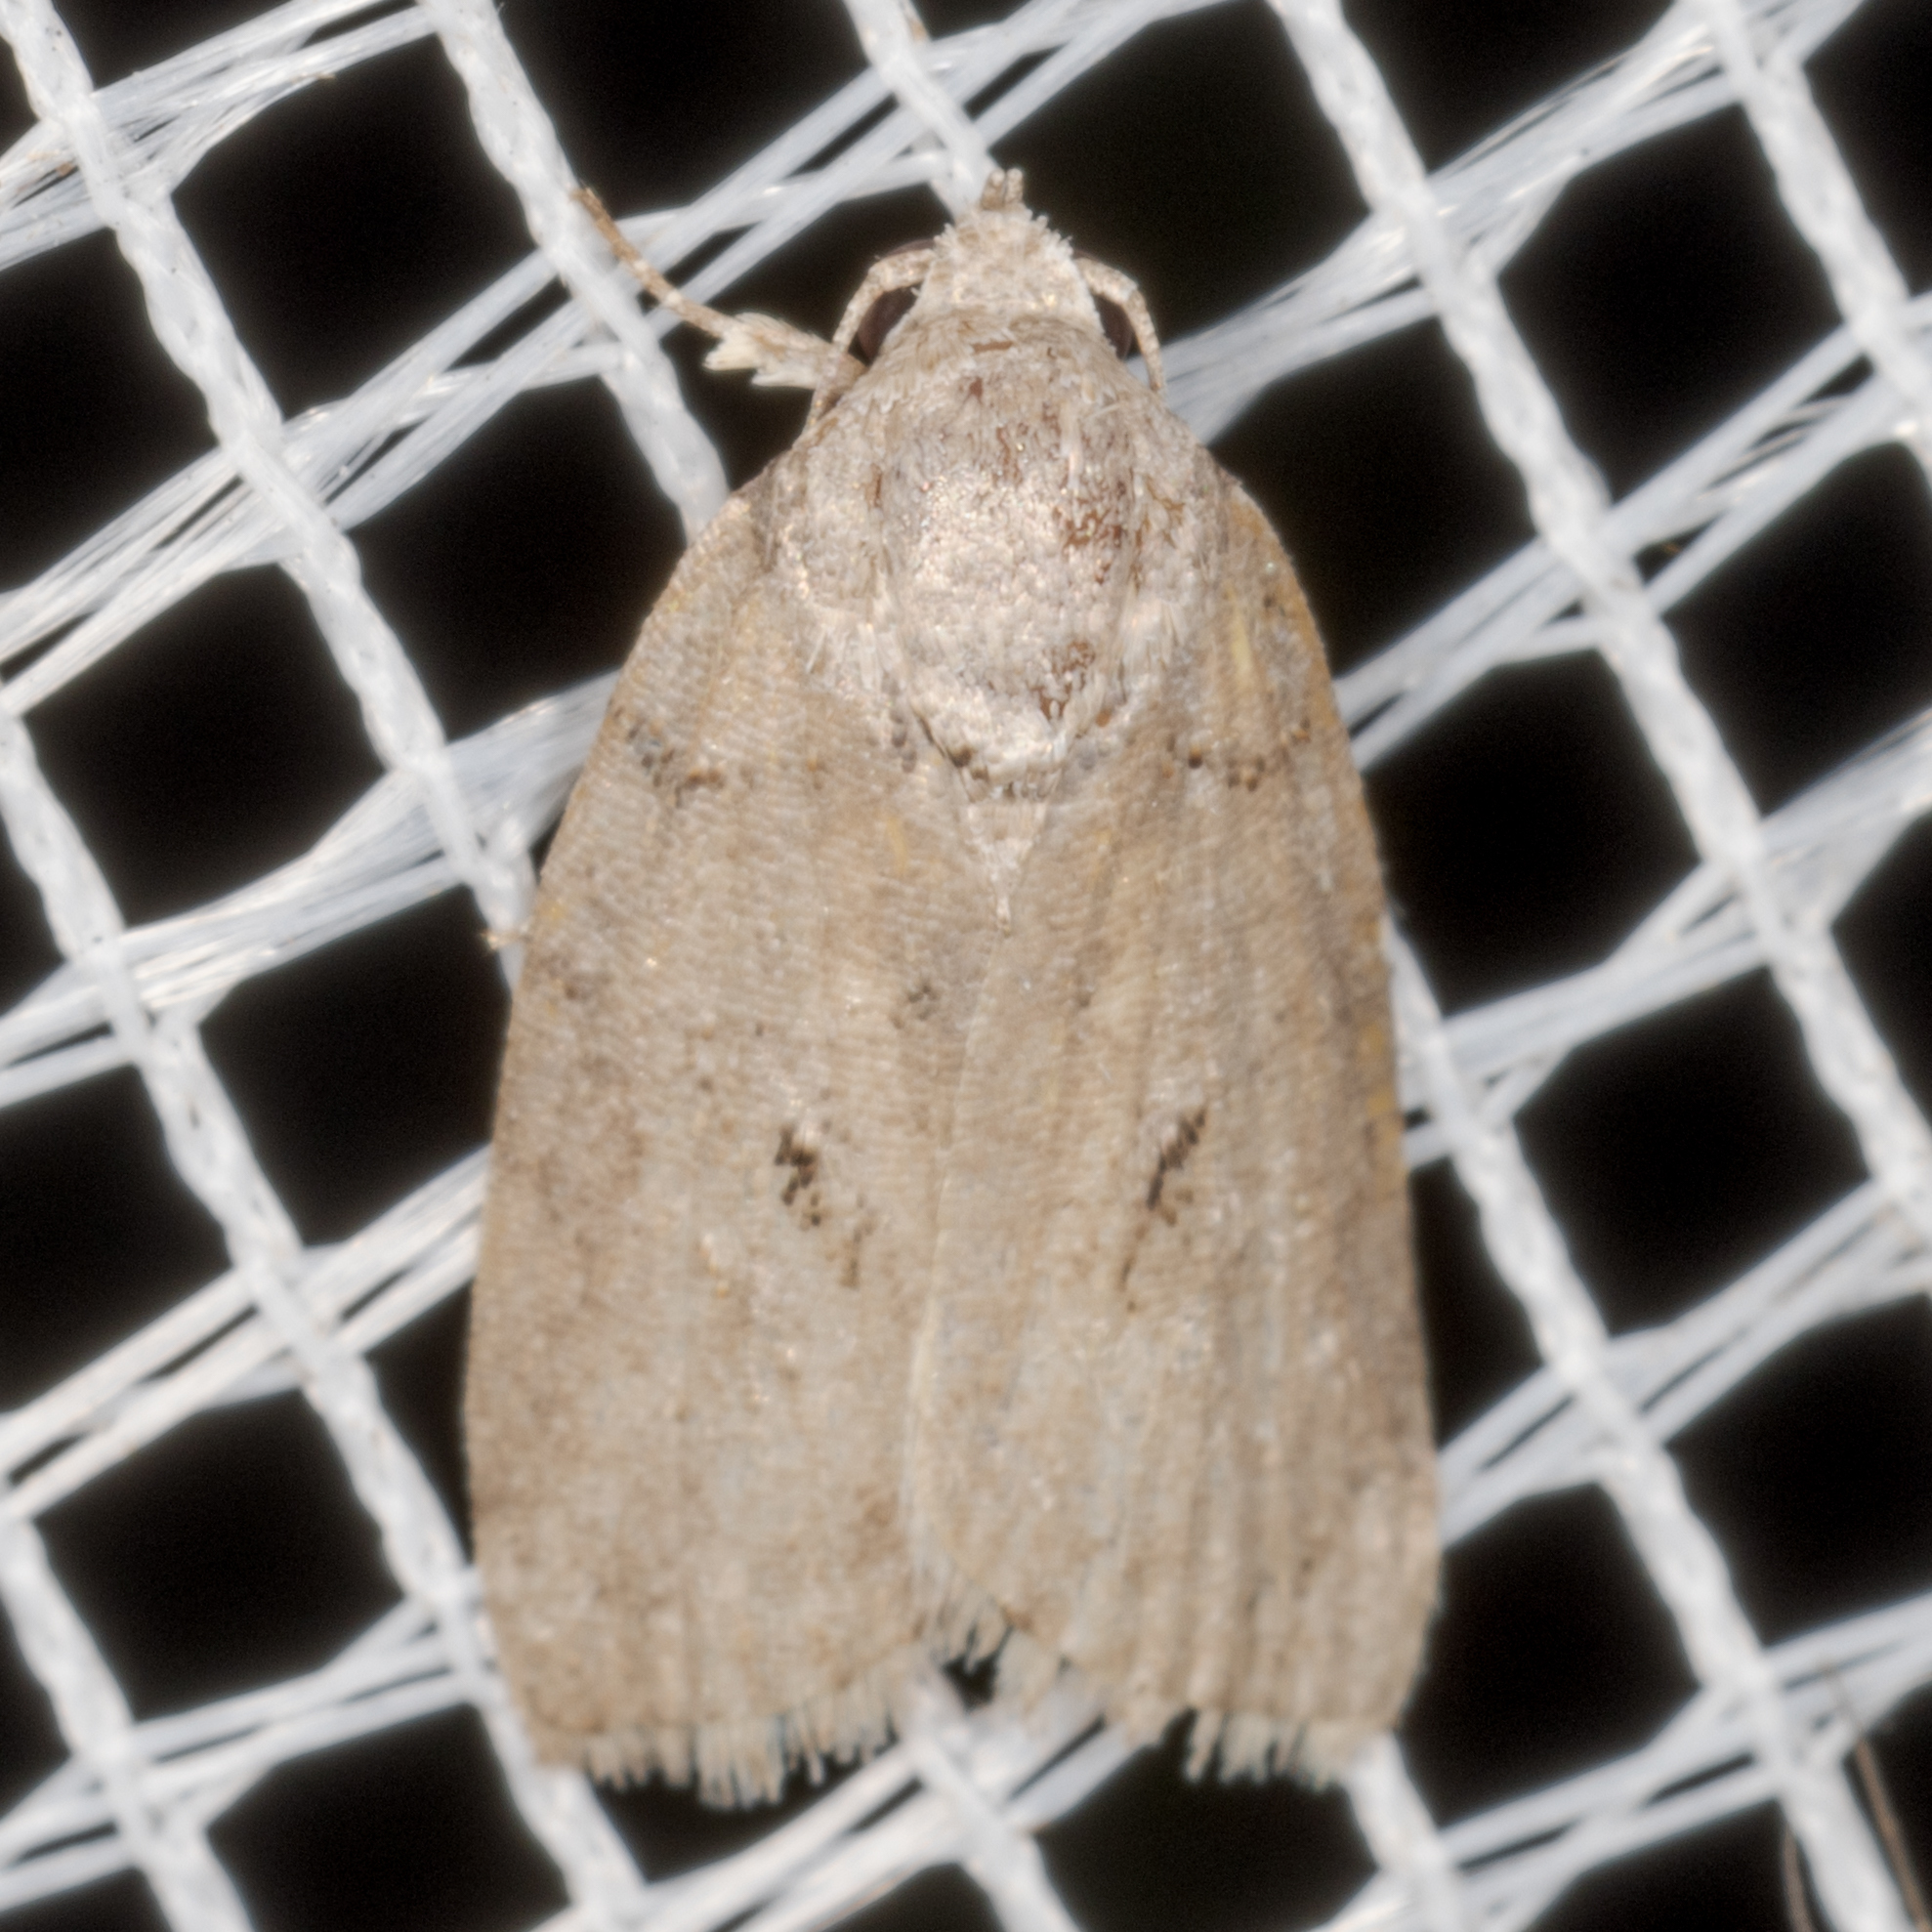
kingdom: Animalia
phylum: Arthropoda
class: Insecta
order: Lepidoptera
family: Nolidae
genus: Garella
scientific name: Garella nilotica
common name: Black-olive caterpillar moth
